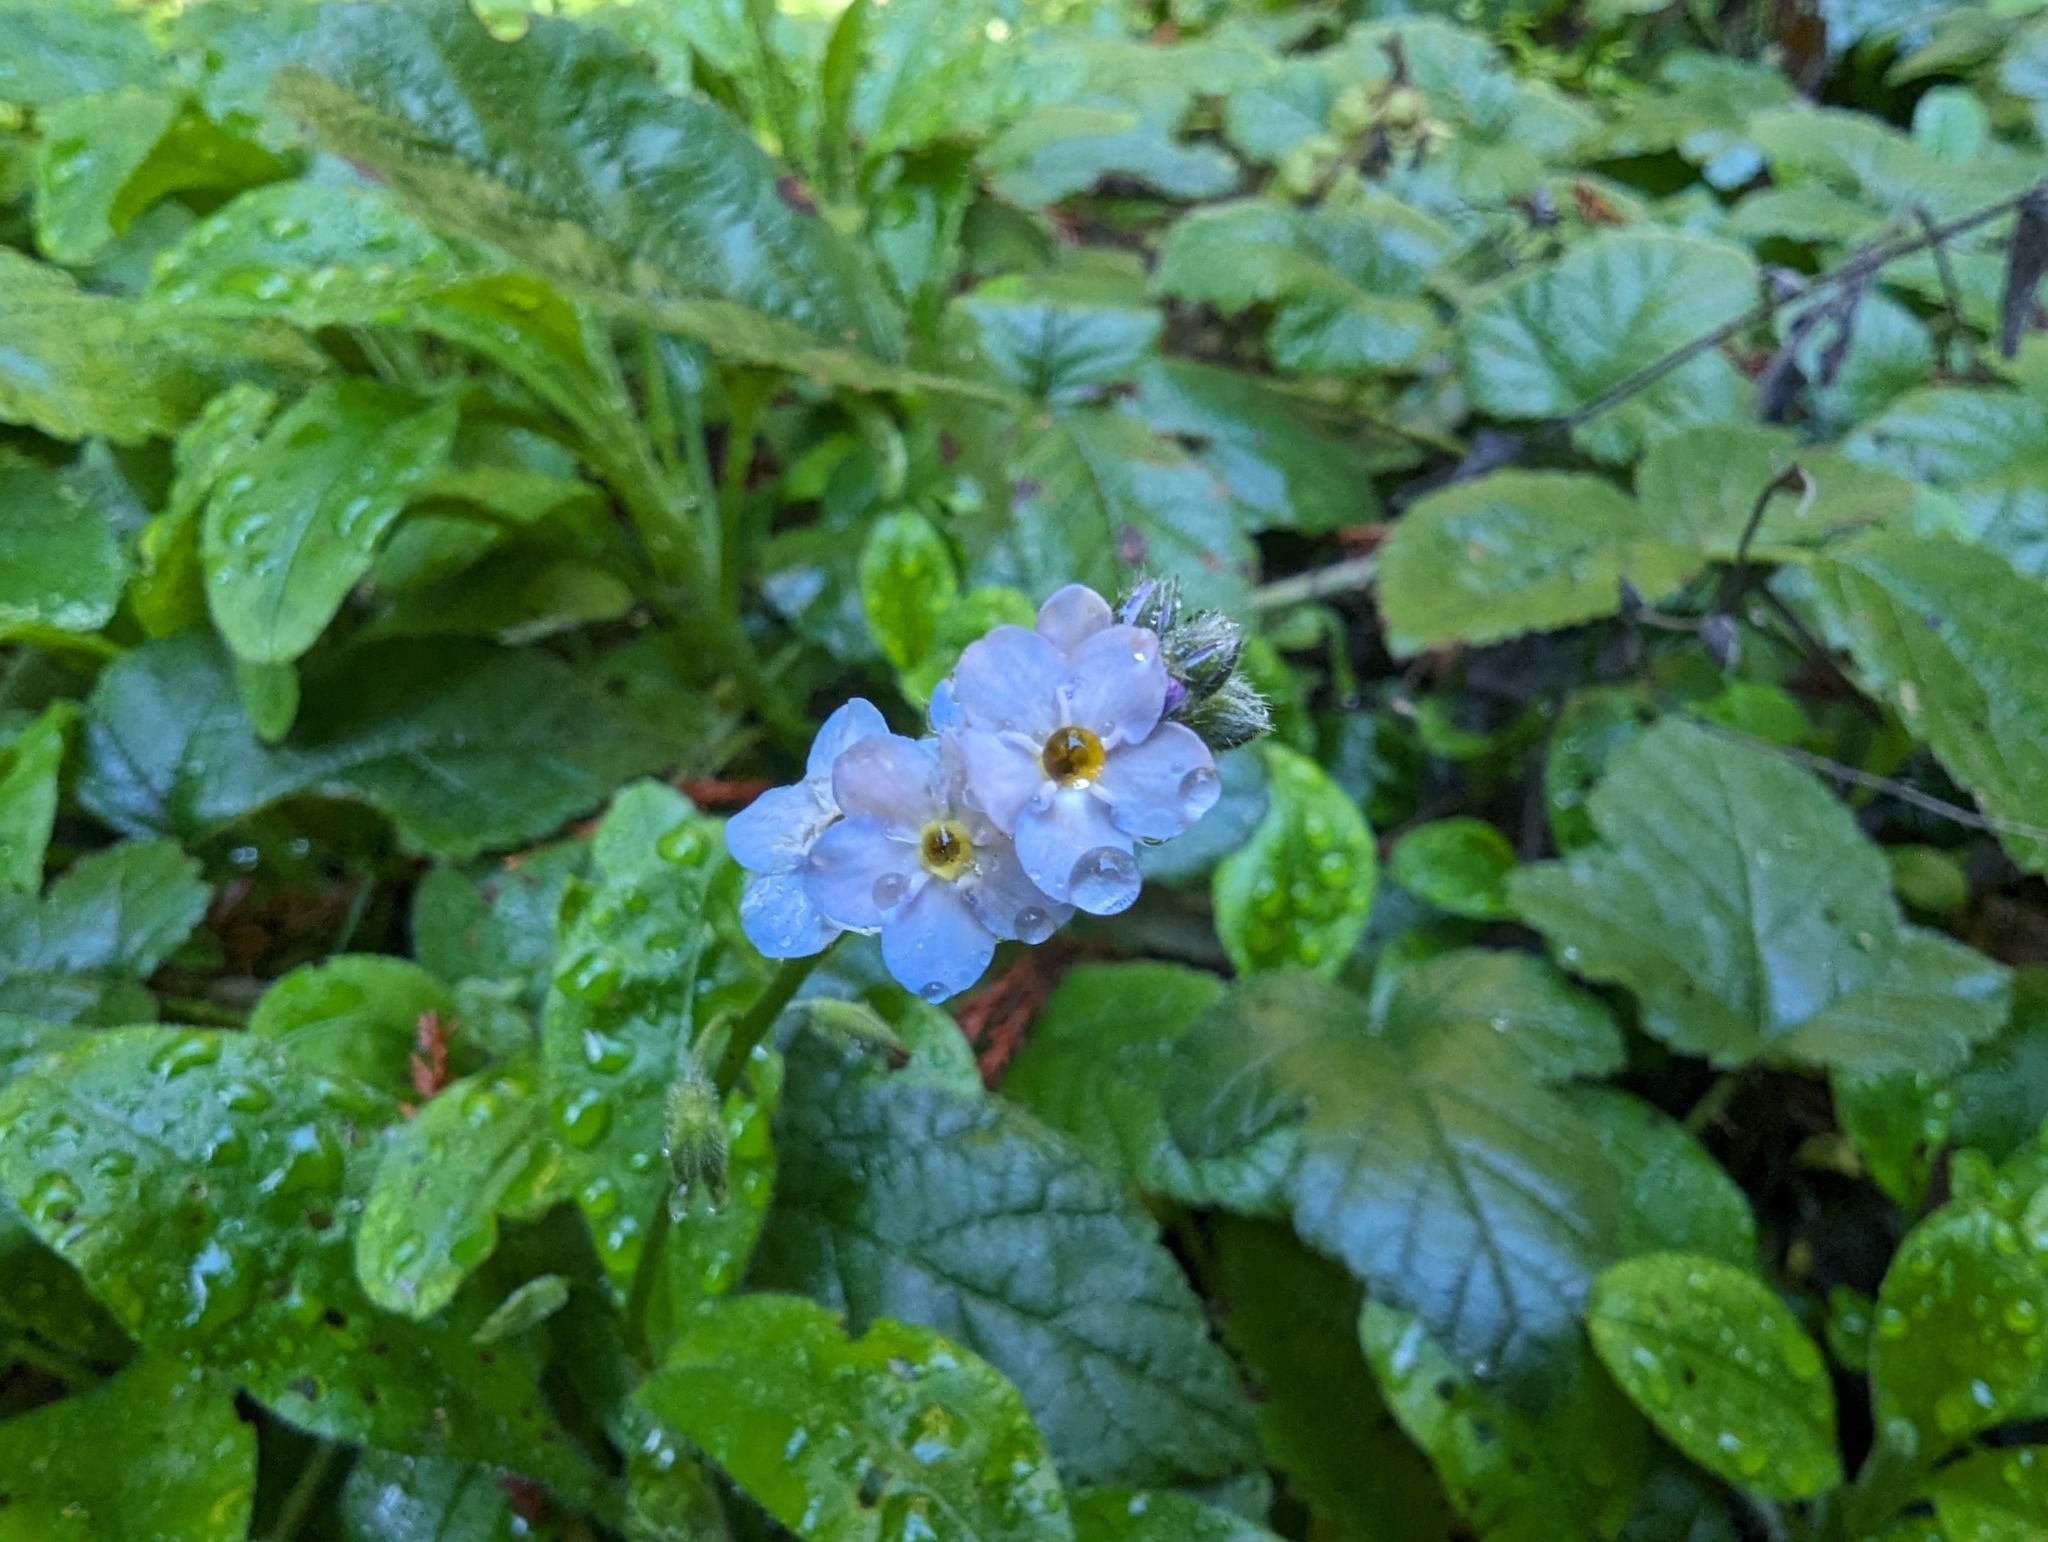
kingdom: Plantae
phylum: Tracheophyta
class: Magnoliopsida
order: Boraginales
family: Boraginaceae
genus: Myosotis
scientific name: Myosotis latifolia
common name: Broadleaf forget-me-not
